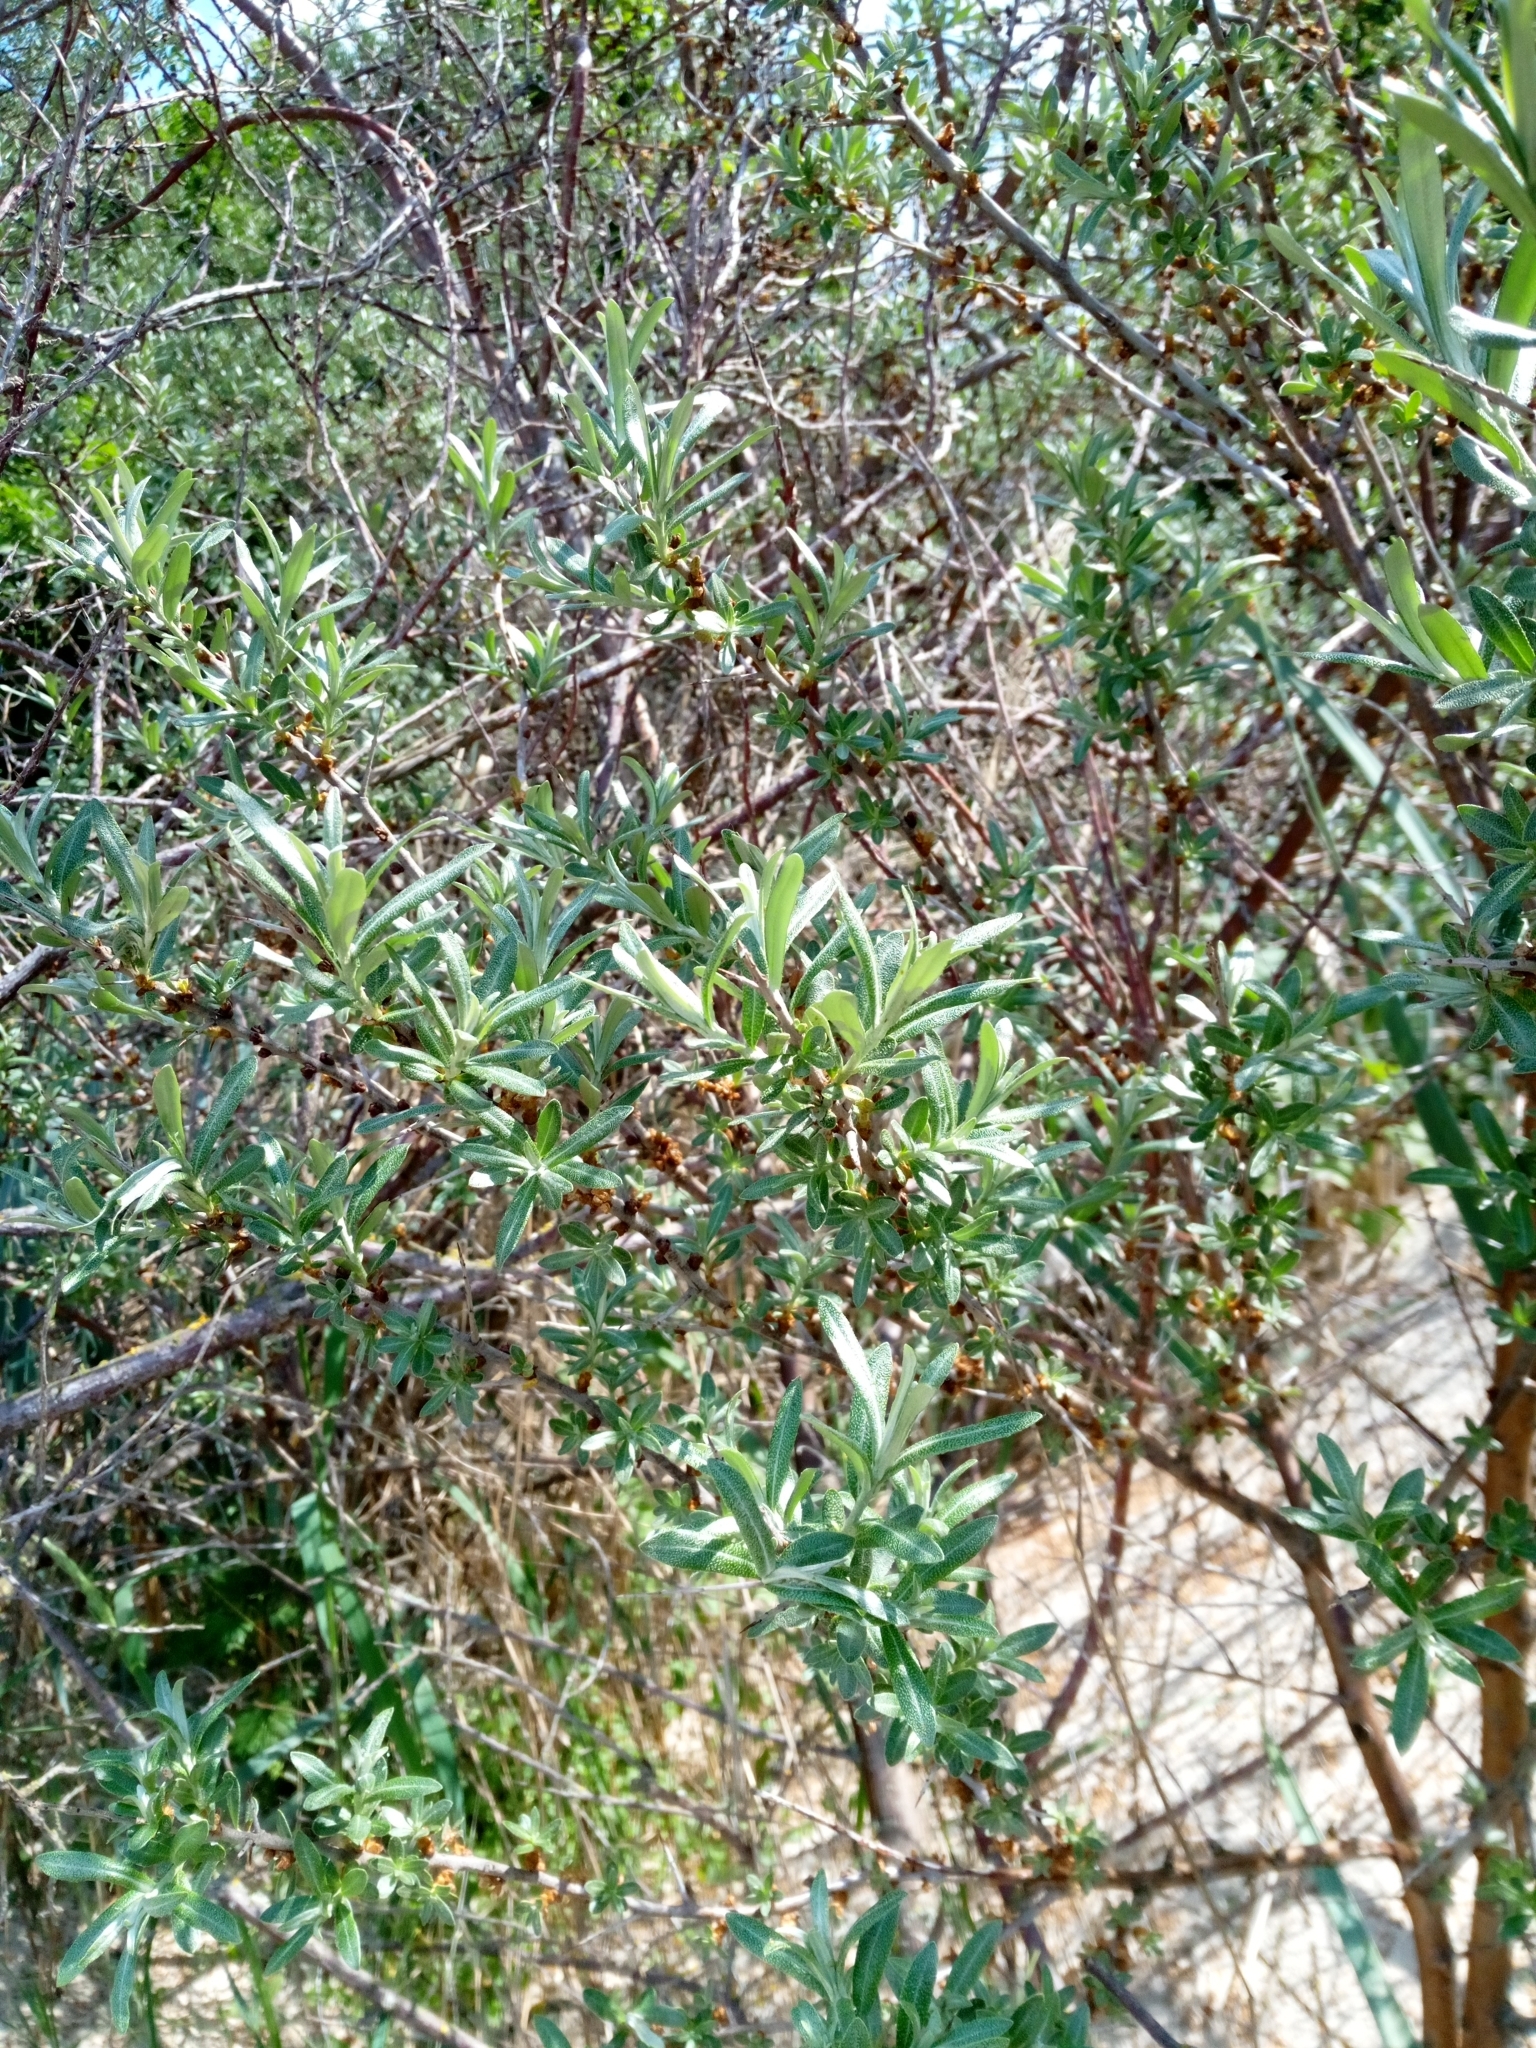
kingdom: Plantae
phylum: Tracheophyta
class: Magnoliopsida
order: Rosales
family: Elaeagnaceae
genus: Hippophae
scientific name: Hippophae rhamnoides
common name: Sea-buckthorn
